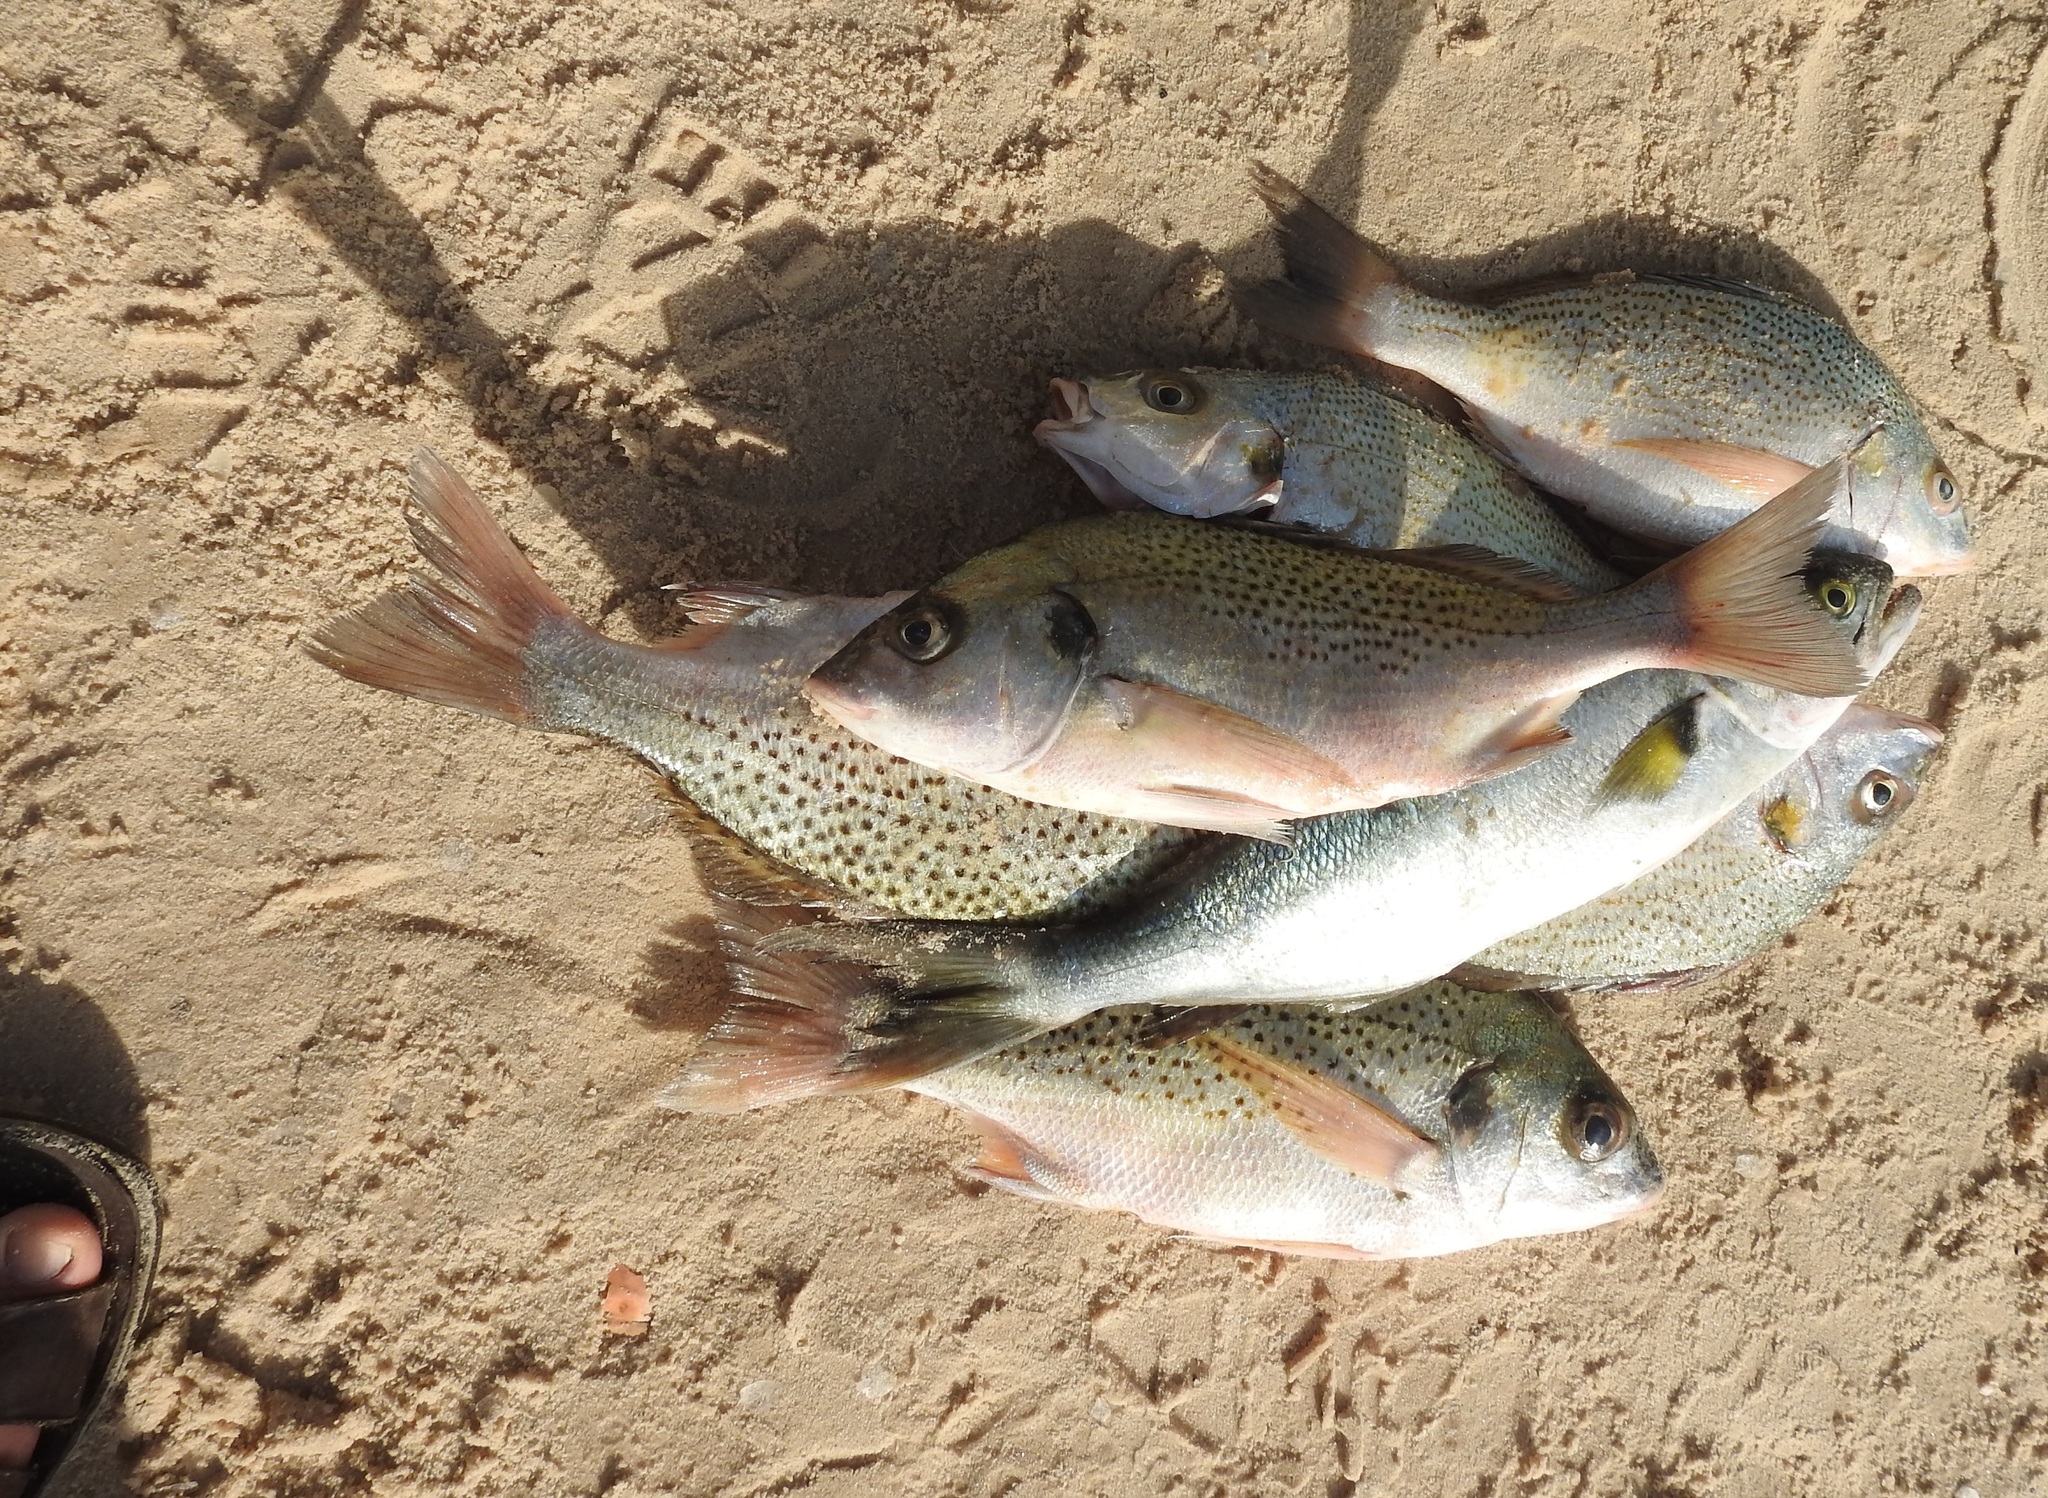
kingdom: Animalia
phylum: Chordata
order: Perciformes
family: Haemulidae
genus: Pomadasys
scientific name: Pomadasys rogerii
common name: Pigsnout grunt
